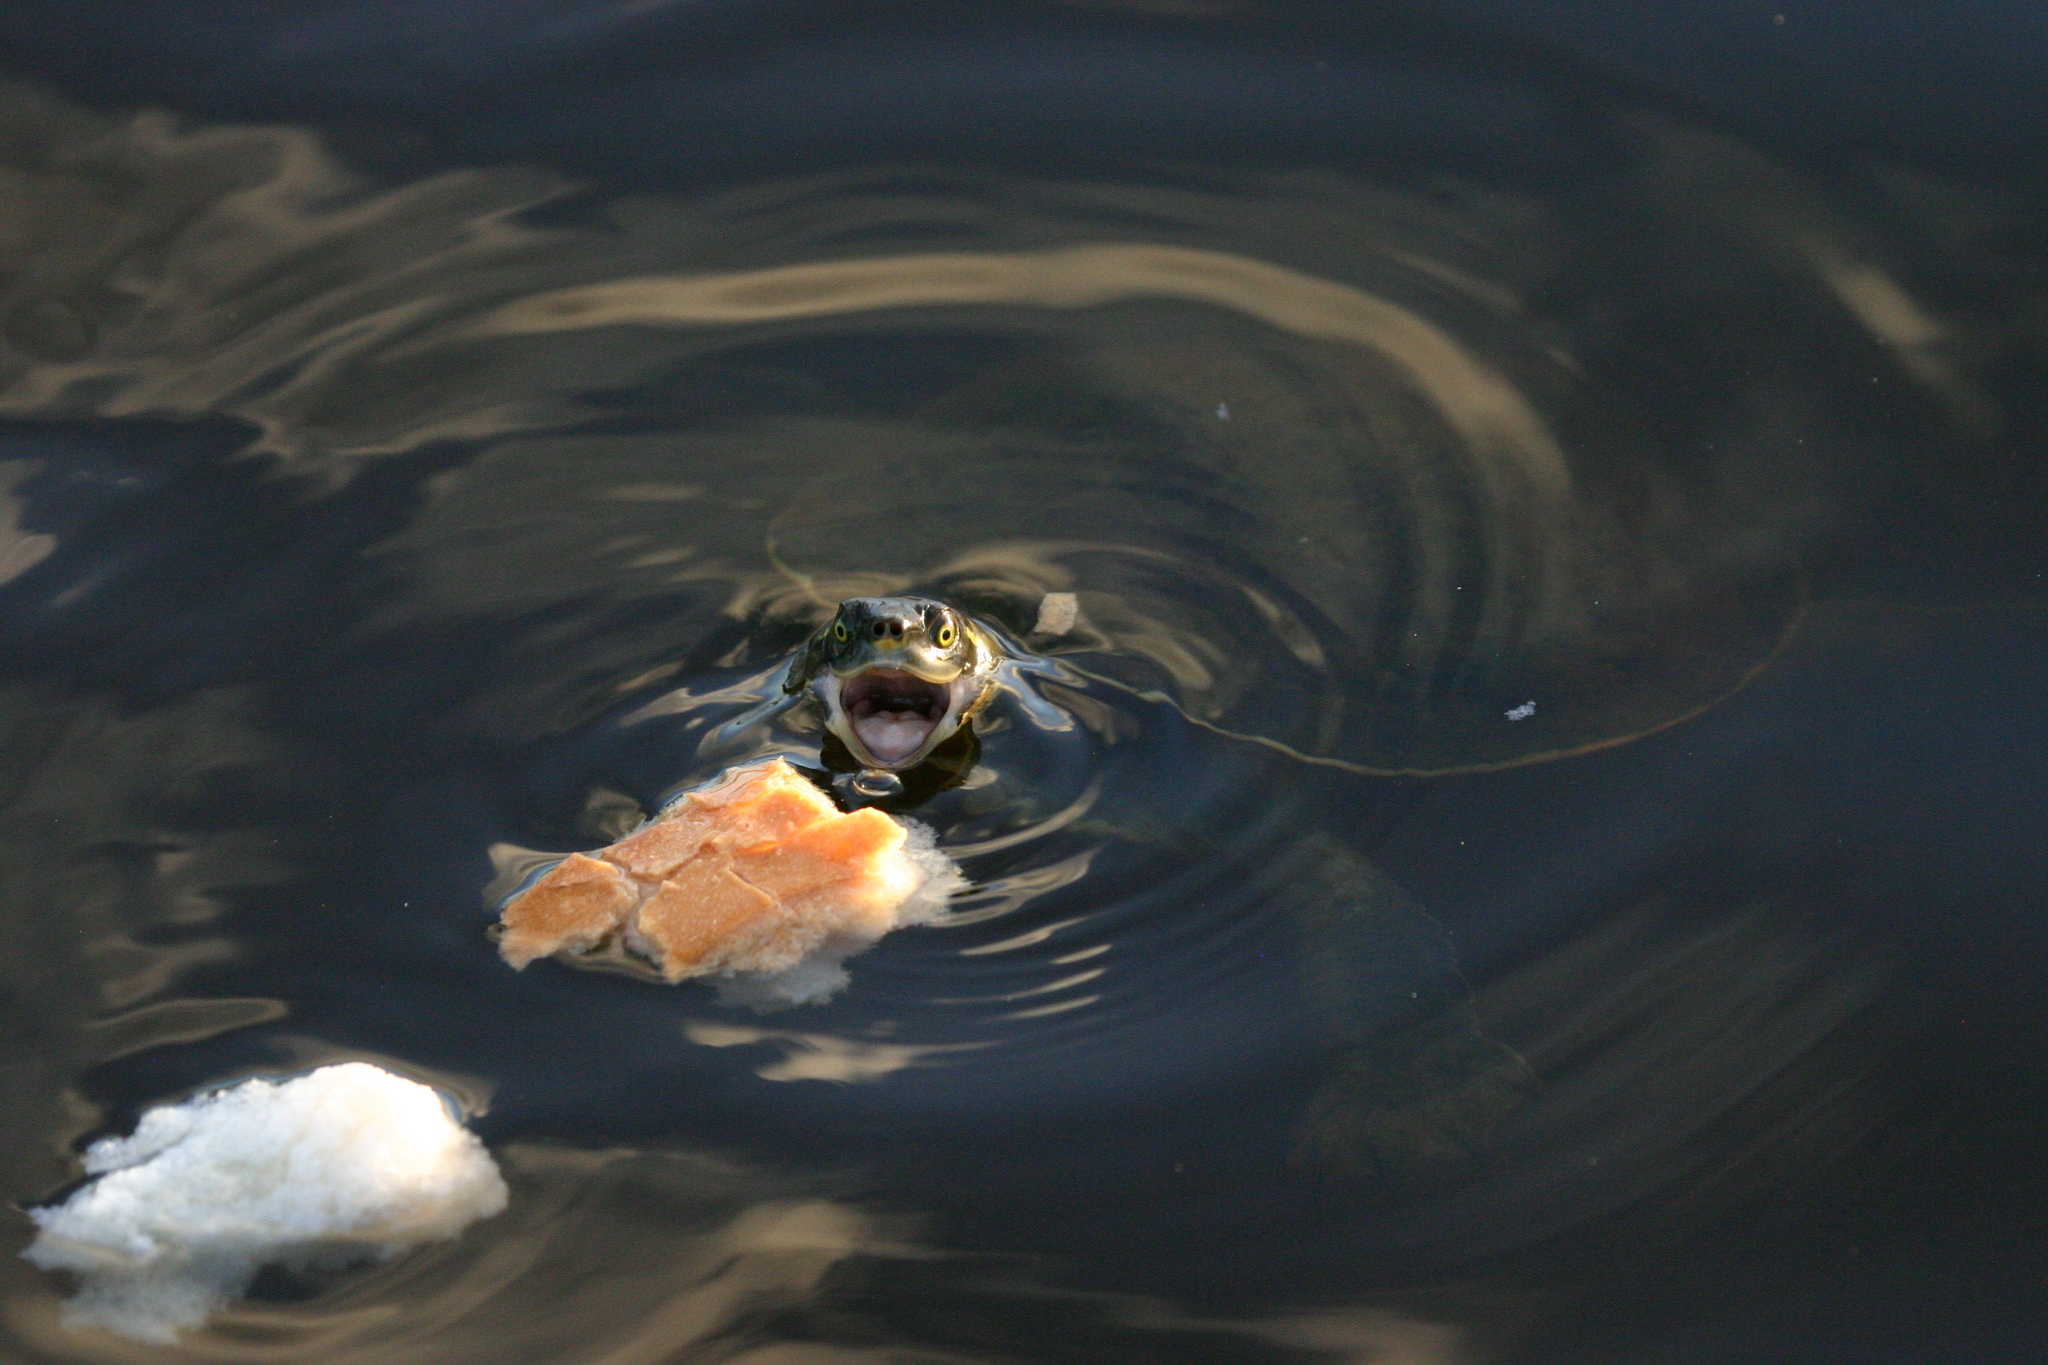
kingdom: Animalia
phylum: Chordata
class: Testudines
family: Chelidae
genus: Emydura
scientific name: Emydura macquarii
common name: Murray river turtle
